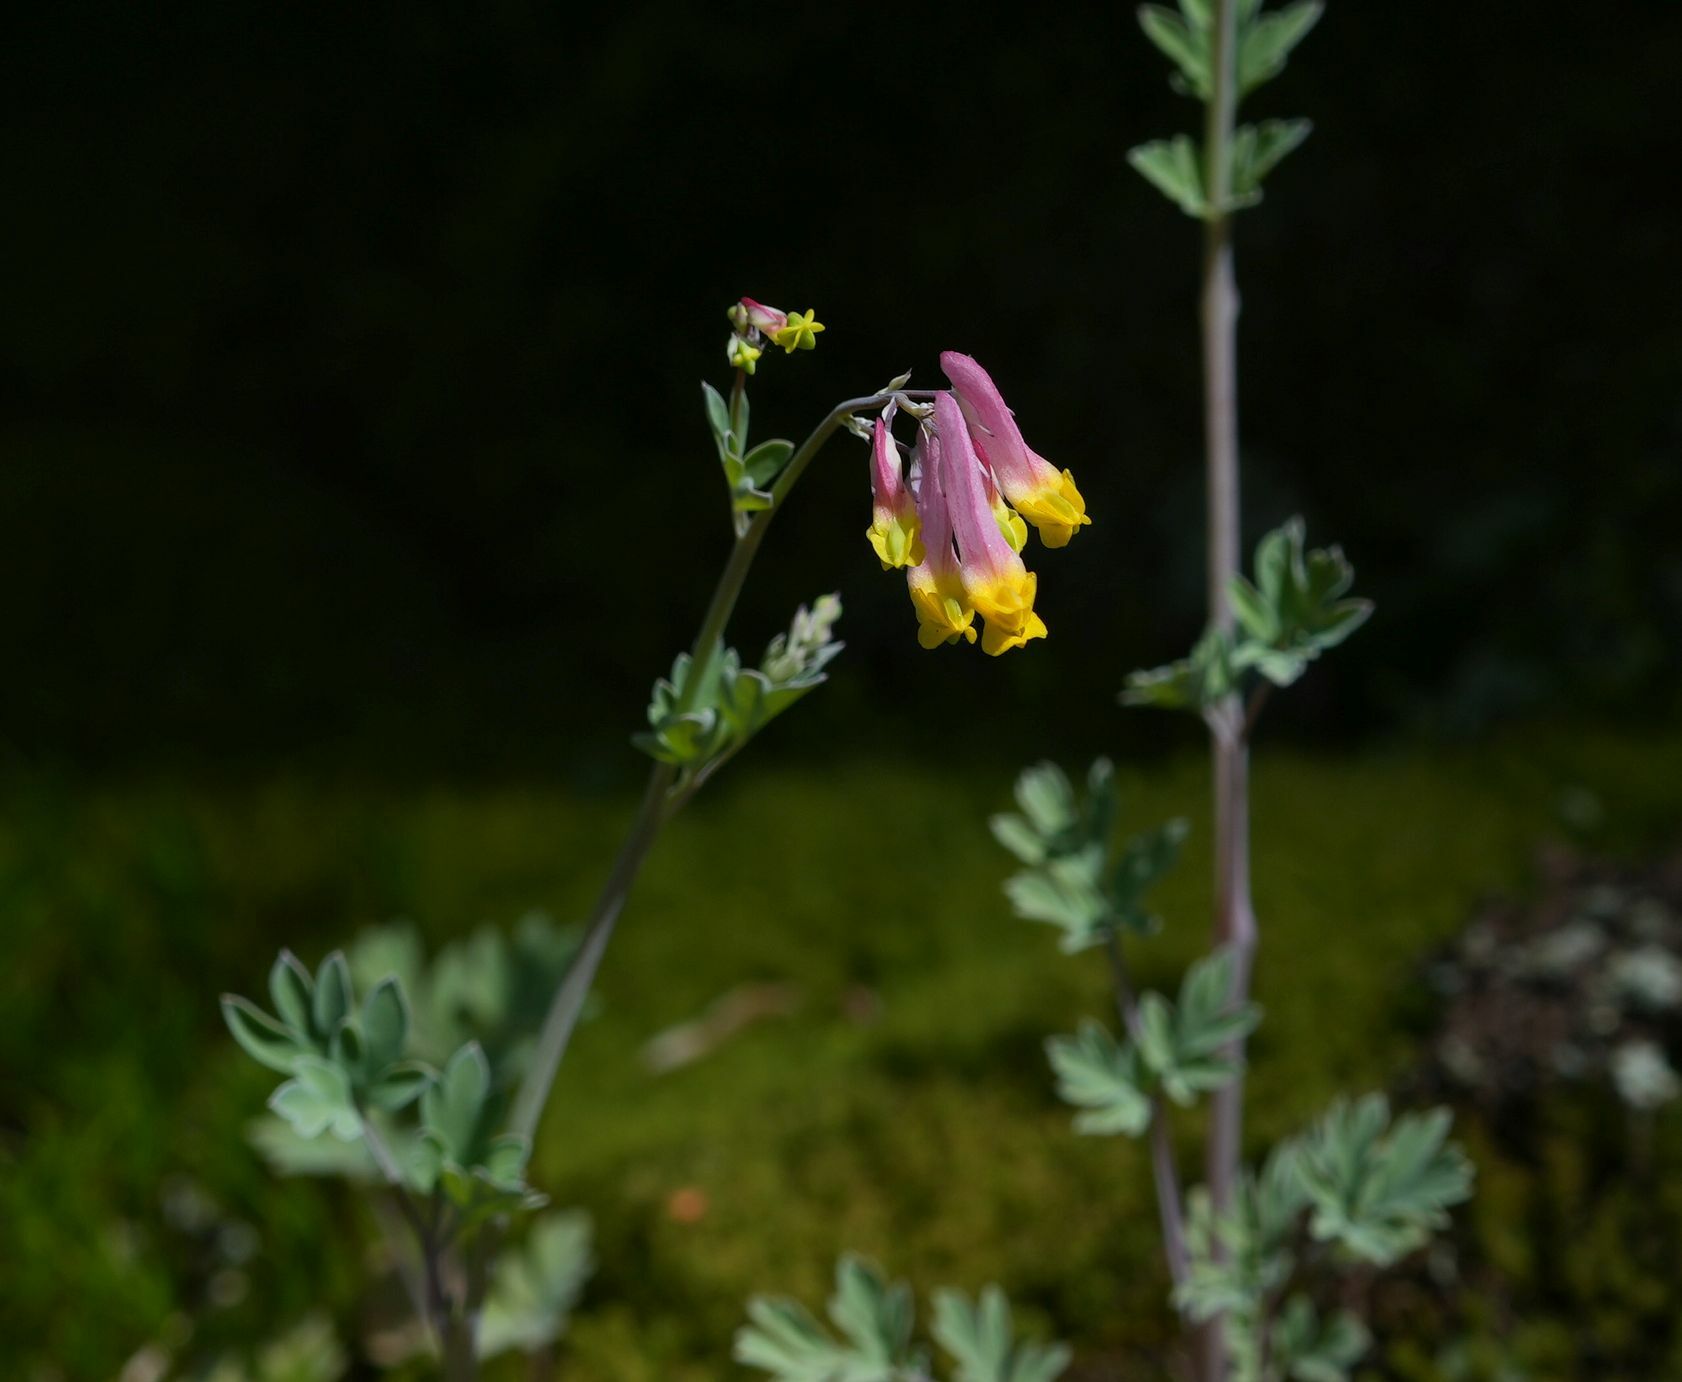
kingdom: Plantae
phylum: Tracheophyta
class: Magnoliopsida
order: Ranunculales
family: Papaveraceae
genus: Capnoides
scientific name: Capnoides sempervirens
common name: Rock harlequin
